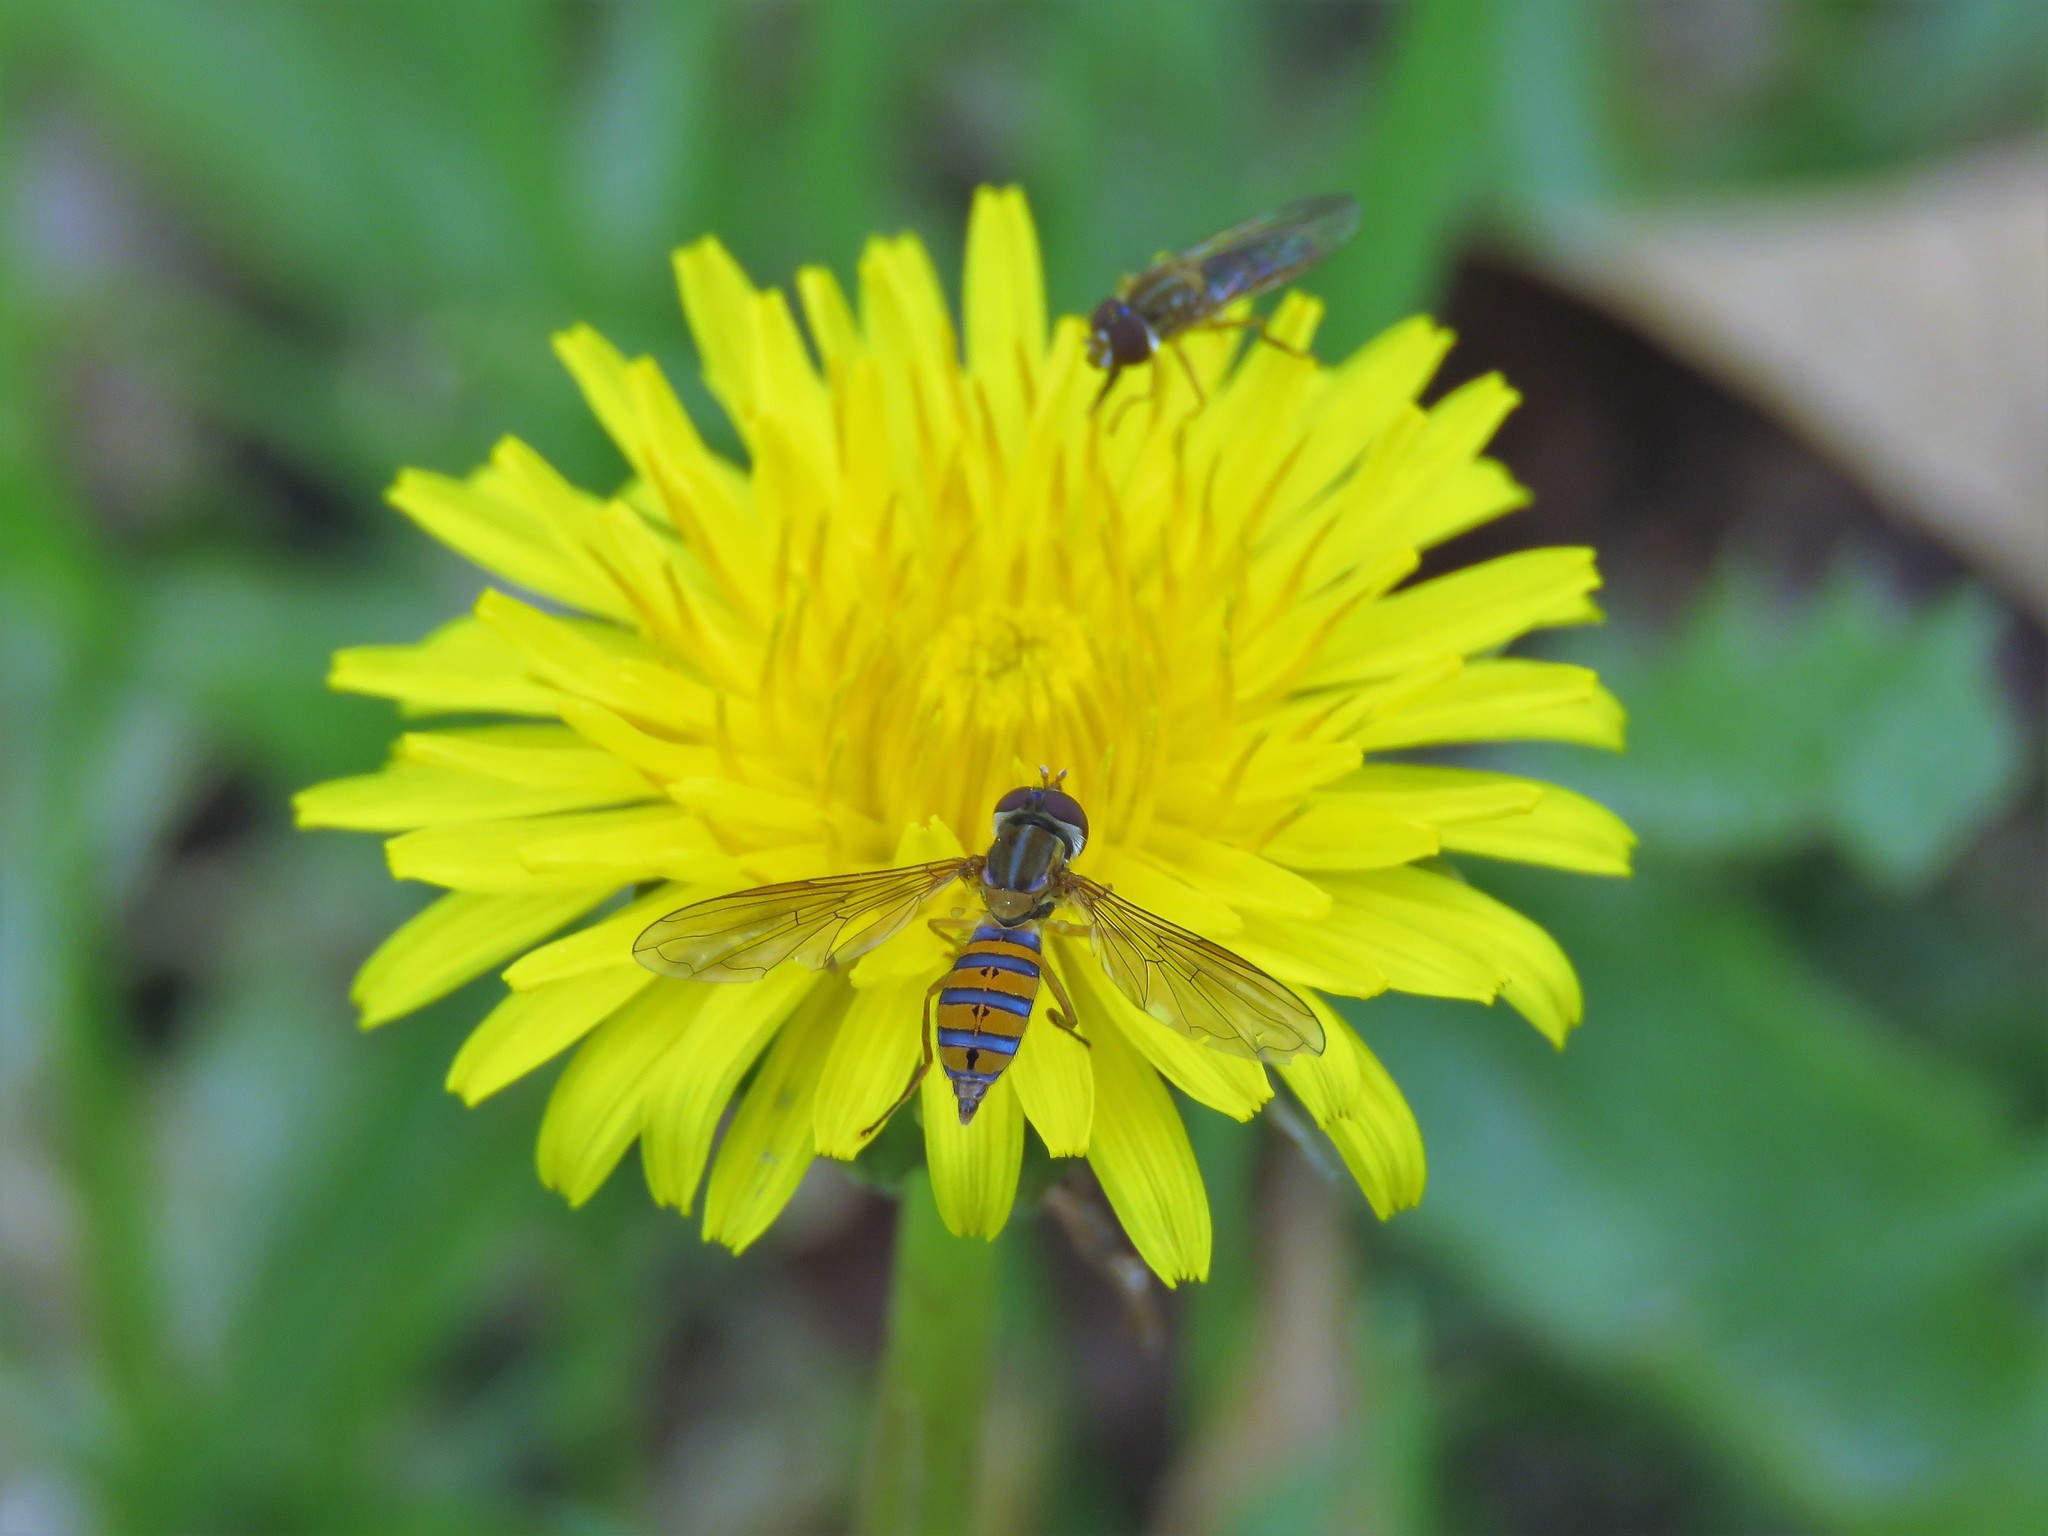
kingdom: Animalia
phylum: Arthropoda
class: Insecta
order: Diptera
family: Syrphidae
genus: Toxomerus
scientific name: Toxomerus
